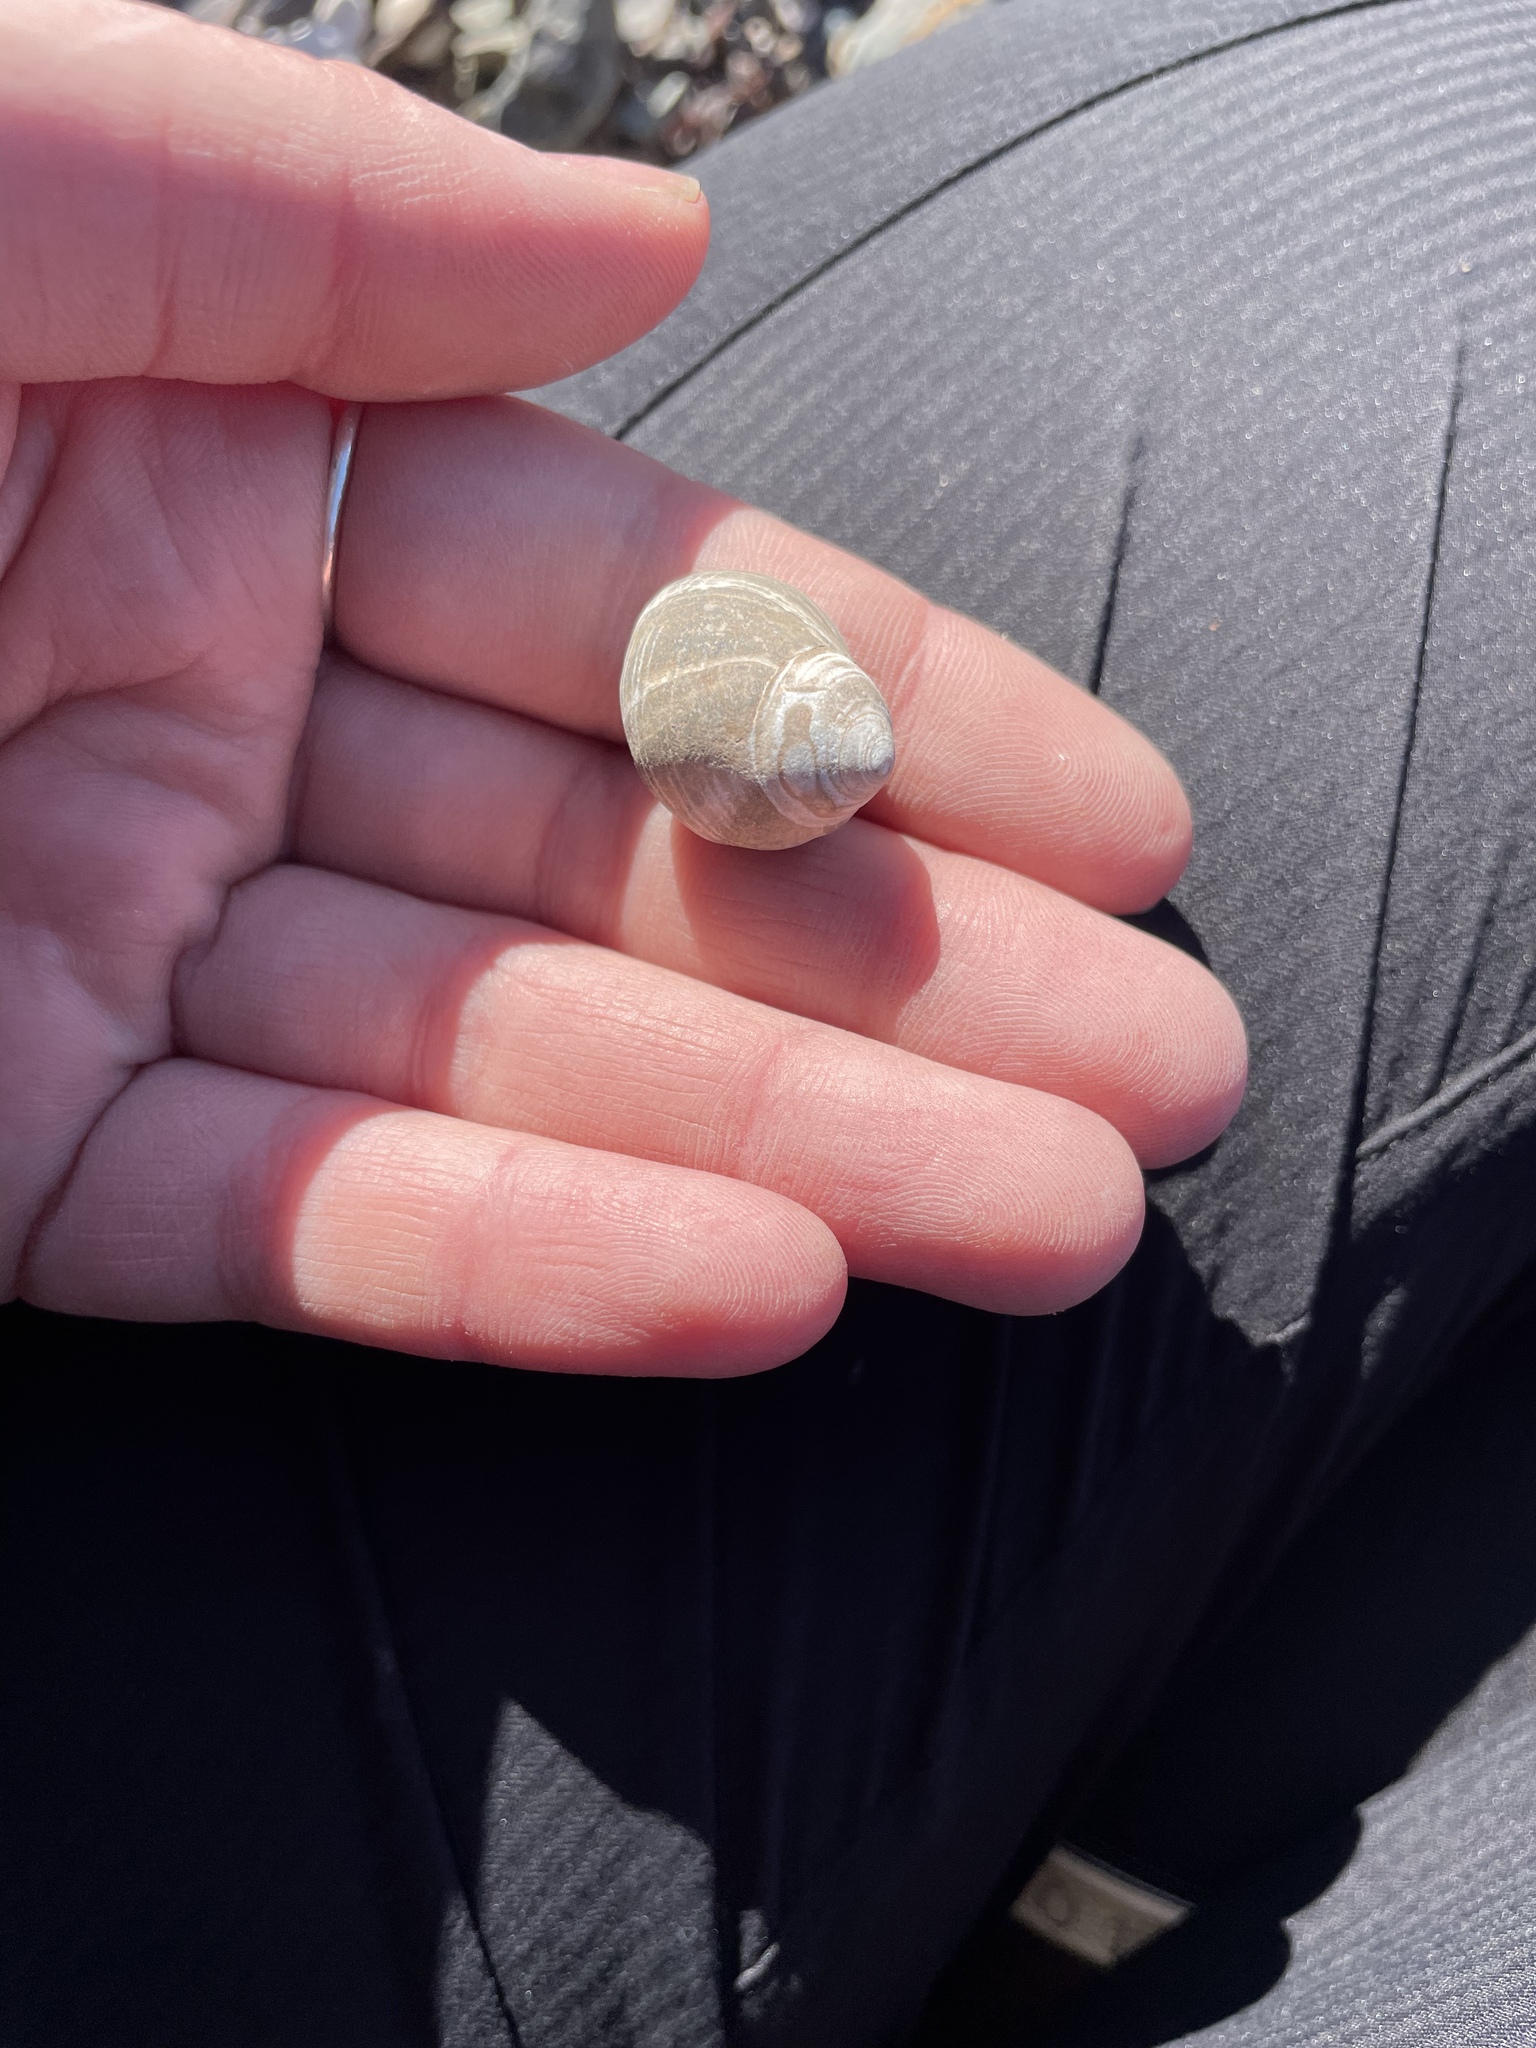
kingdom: Animalia
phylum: Mollusca
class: Gastropoda
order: Littorinimorpha
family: Littorinidae
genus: Littorina
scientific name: Littorina littorea
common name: Common periwinkle
